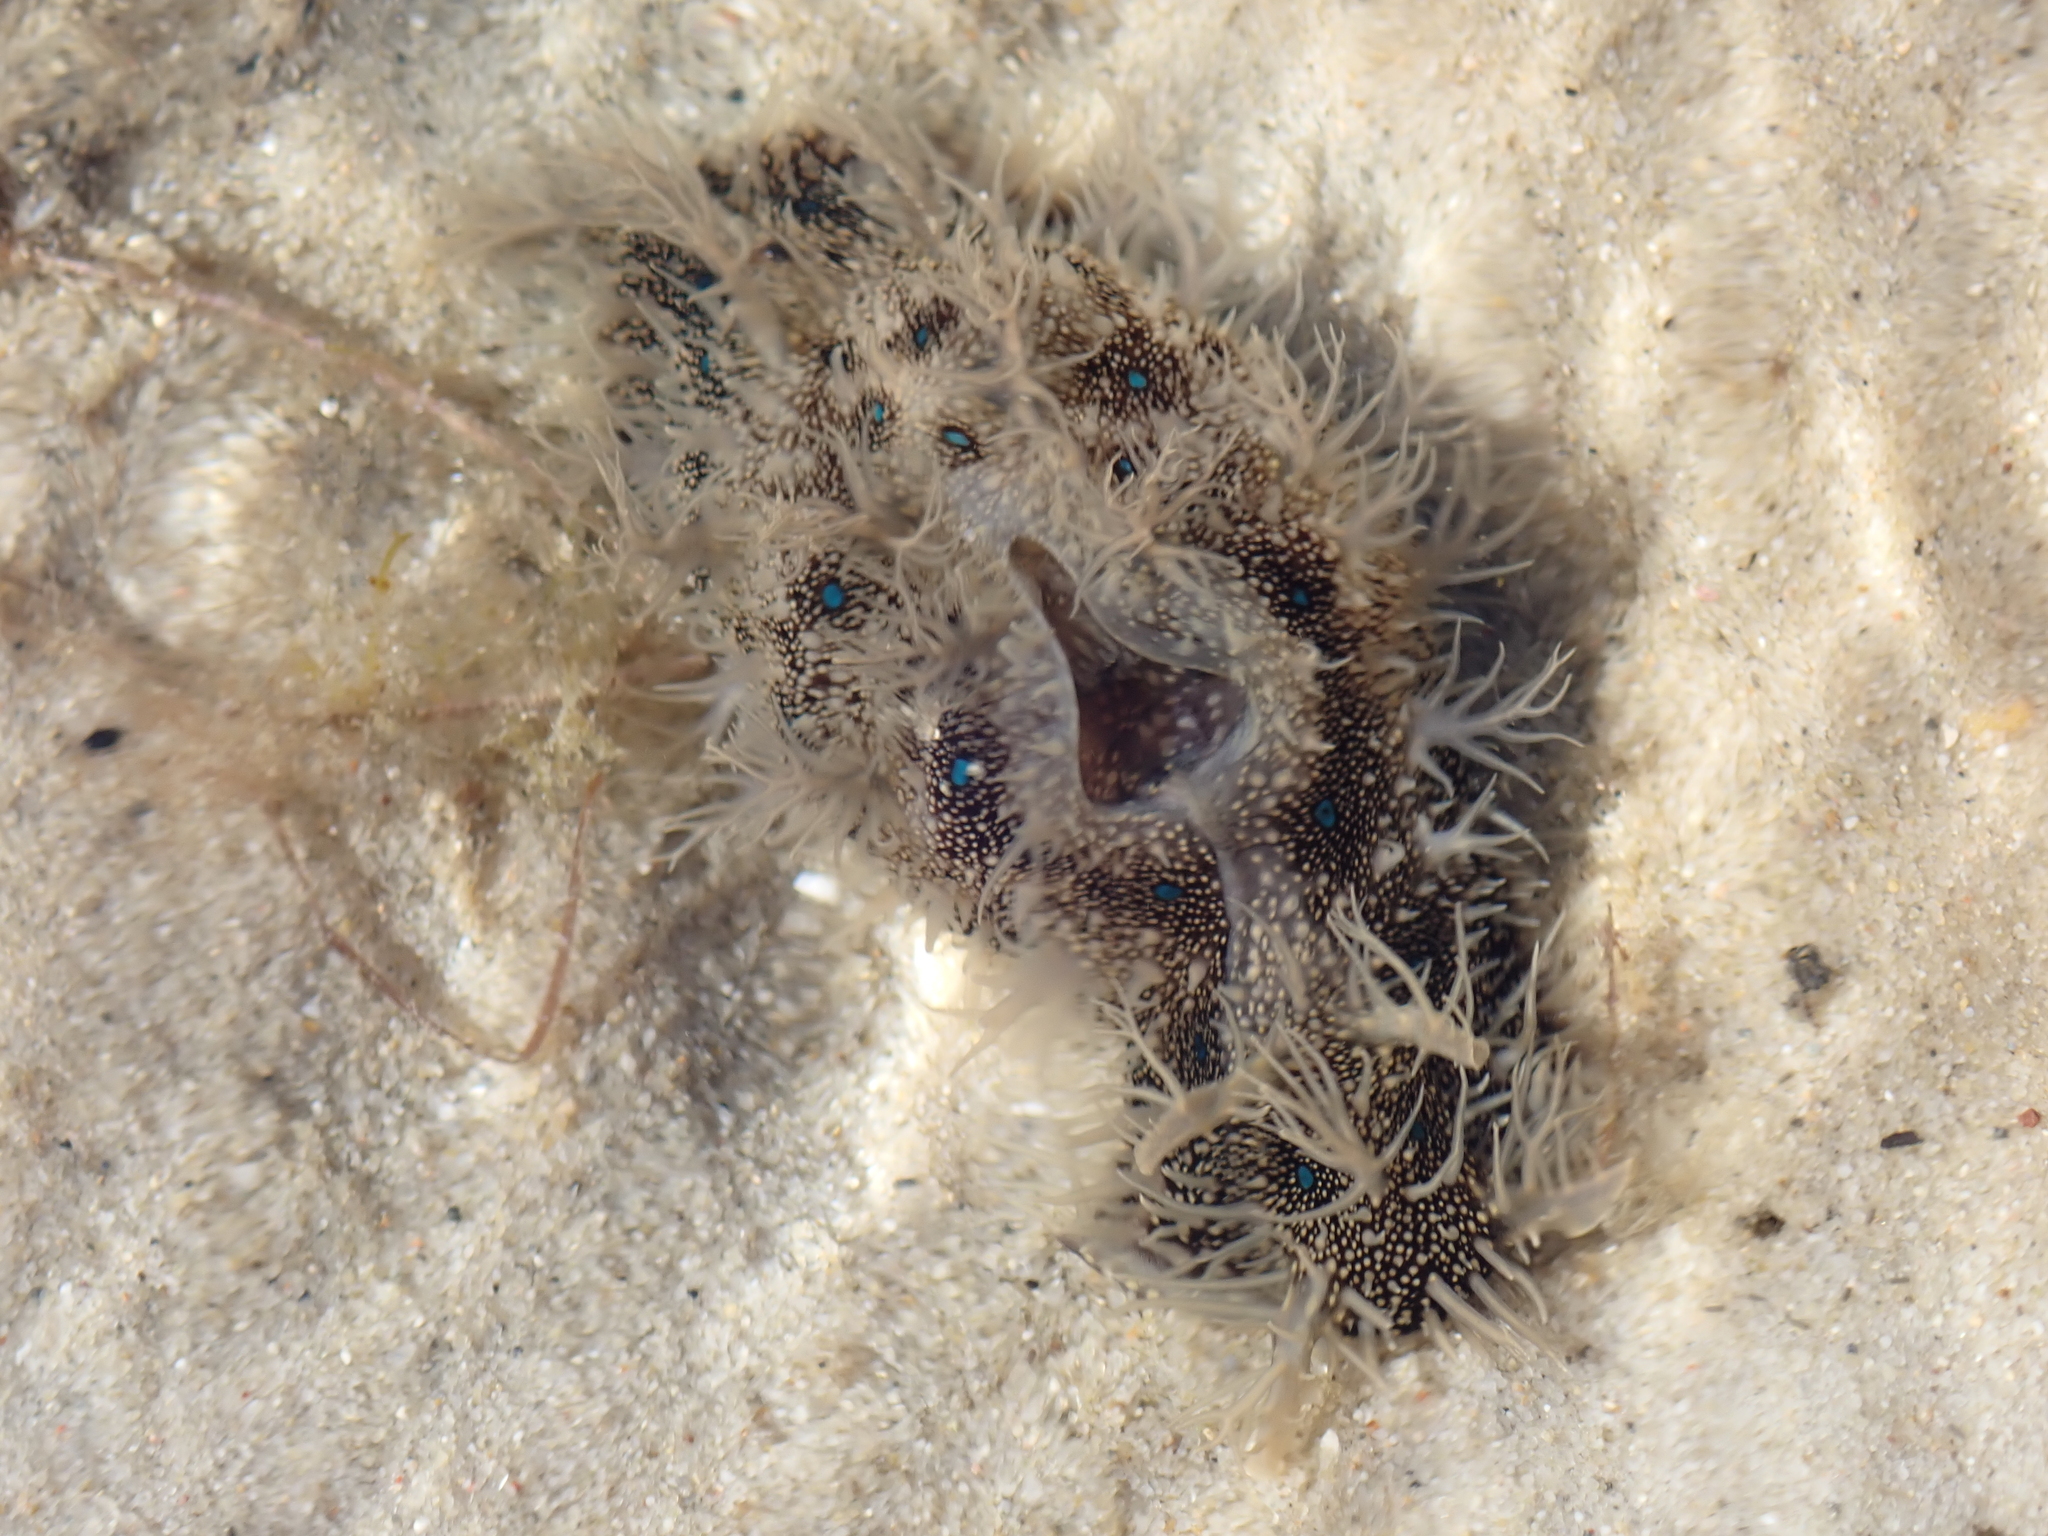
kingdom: Animalia
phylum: Mollusca
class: Gastropoda
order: Aplysiida
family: Aplysiidae
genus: Bursatella
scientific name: Bursatella leachii
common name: Shaggy sea hare
